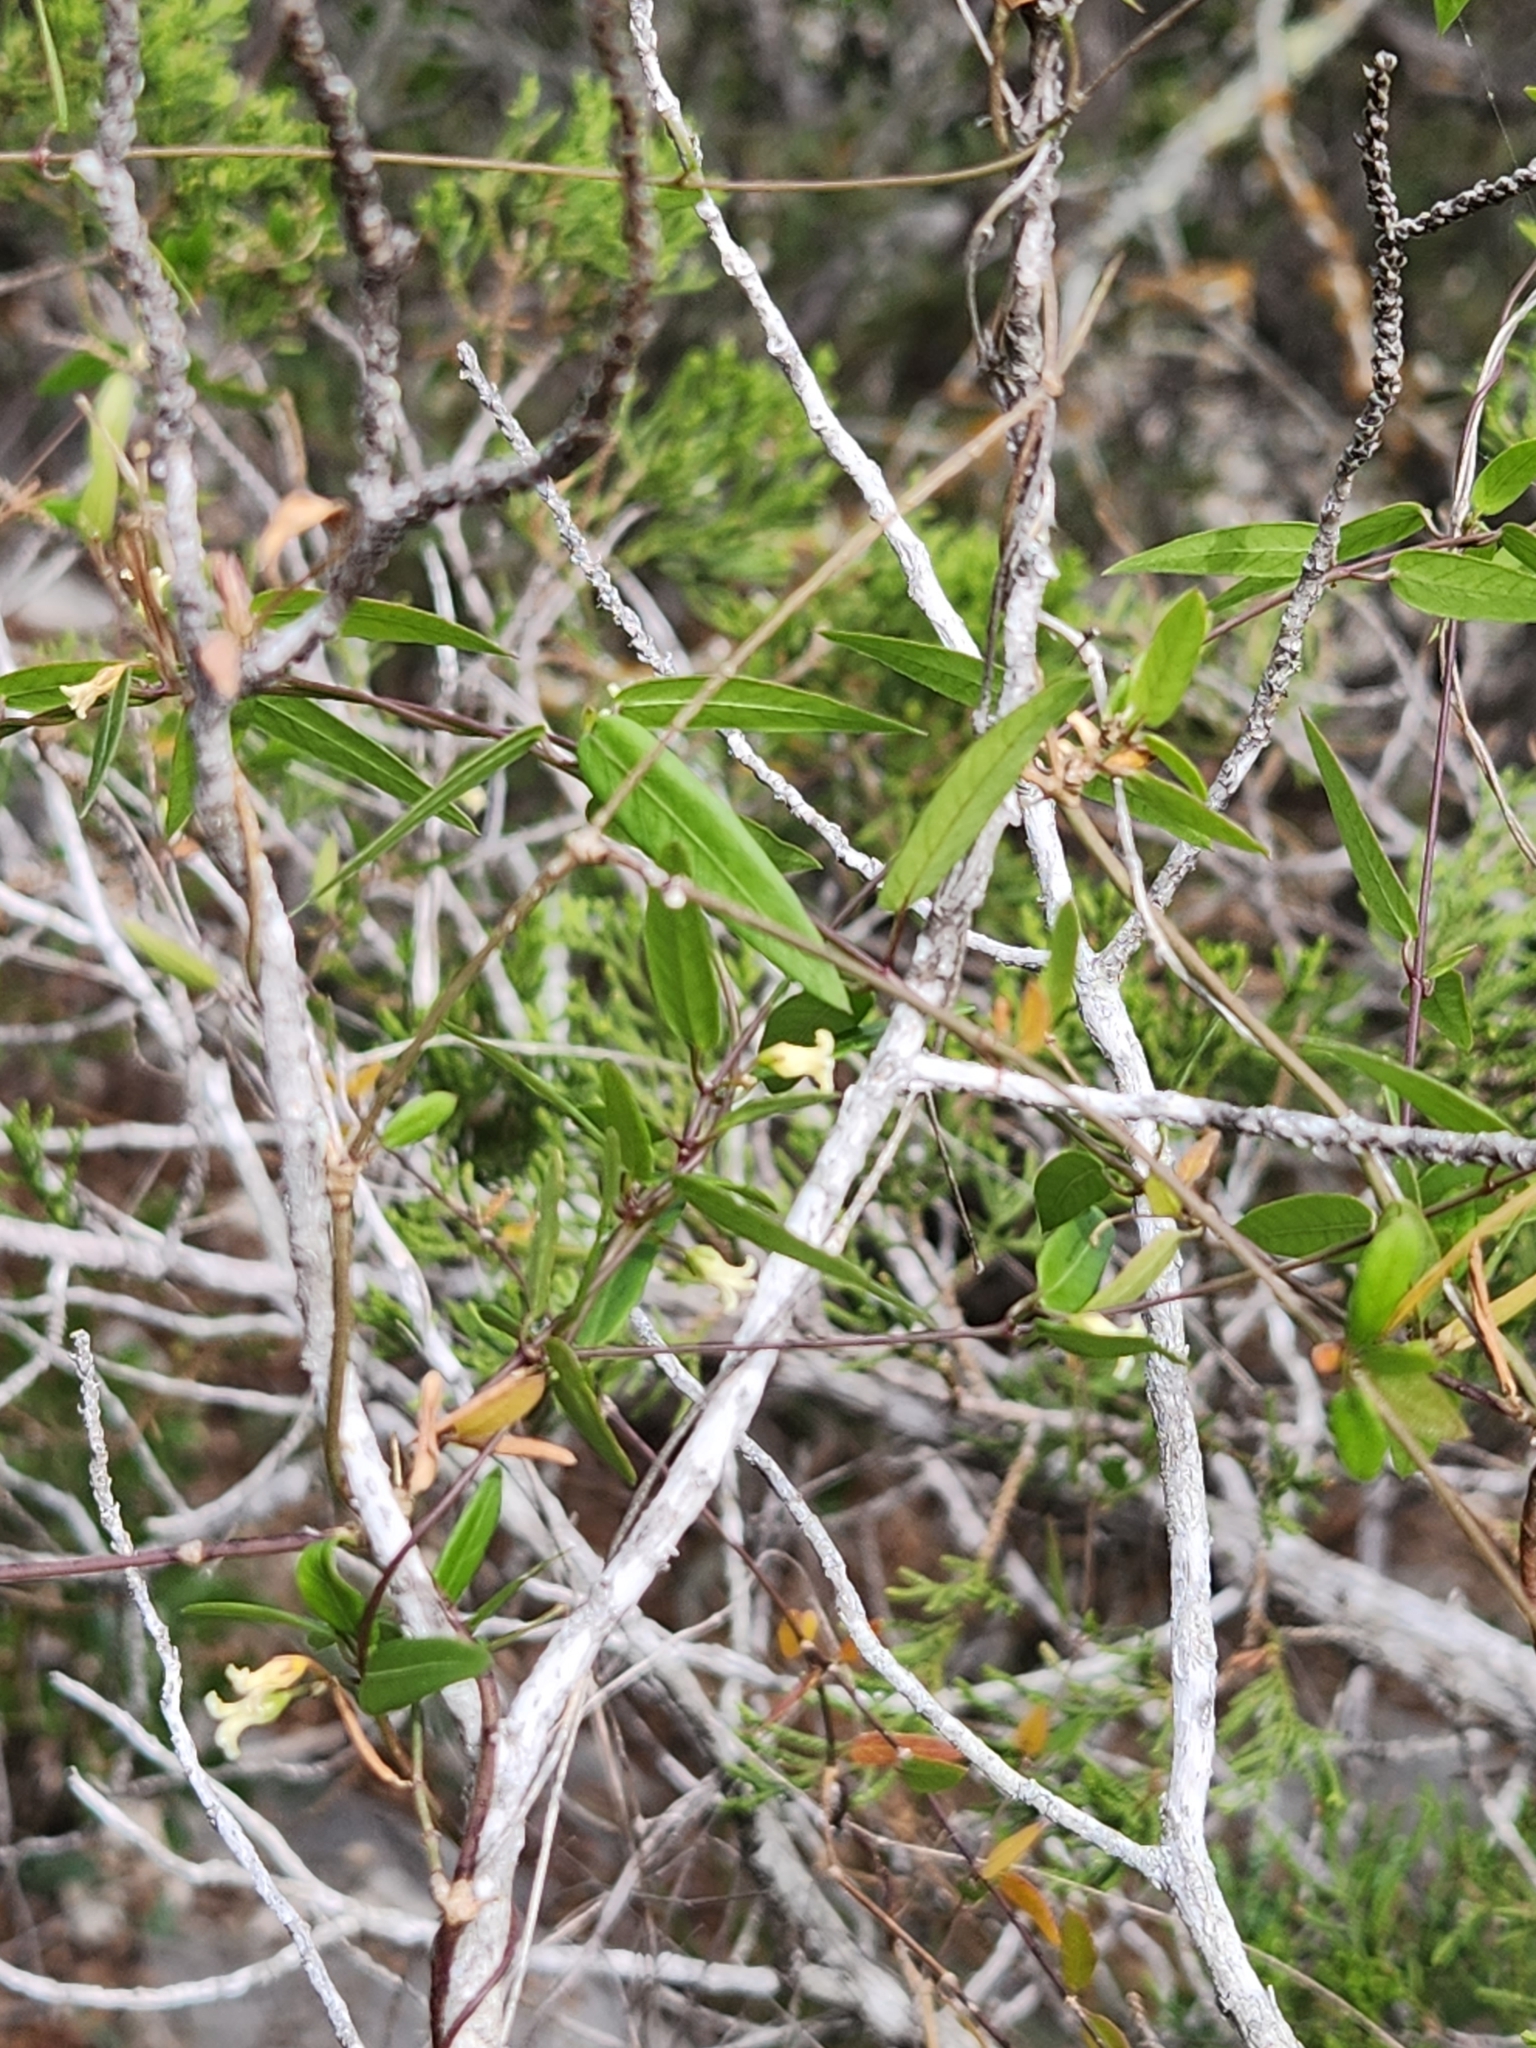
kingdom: Plantae
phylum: Tracheophyta
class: Magnoliopsida
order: Gentianales
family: Apocynaceae
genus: Metastelma
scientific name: Metastelma barbigerum
